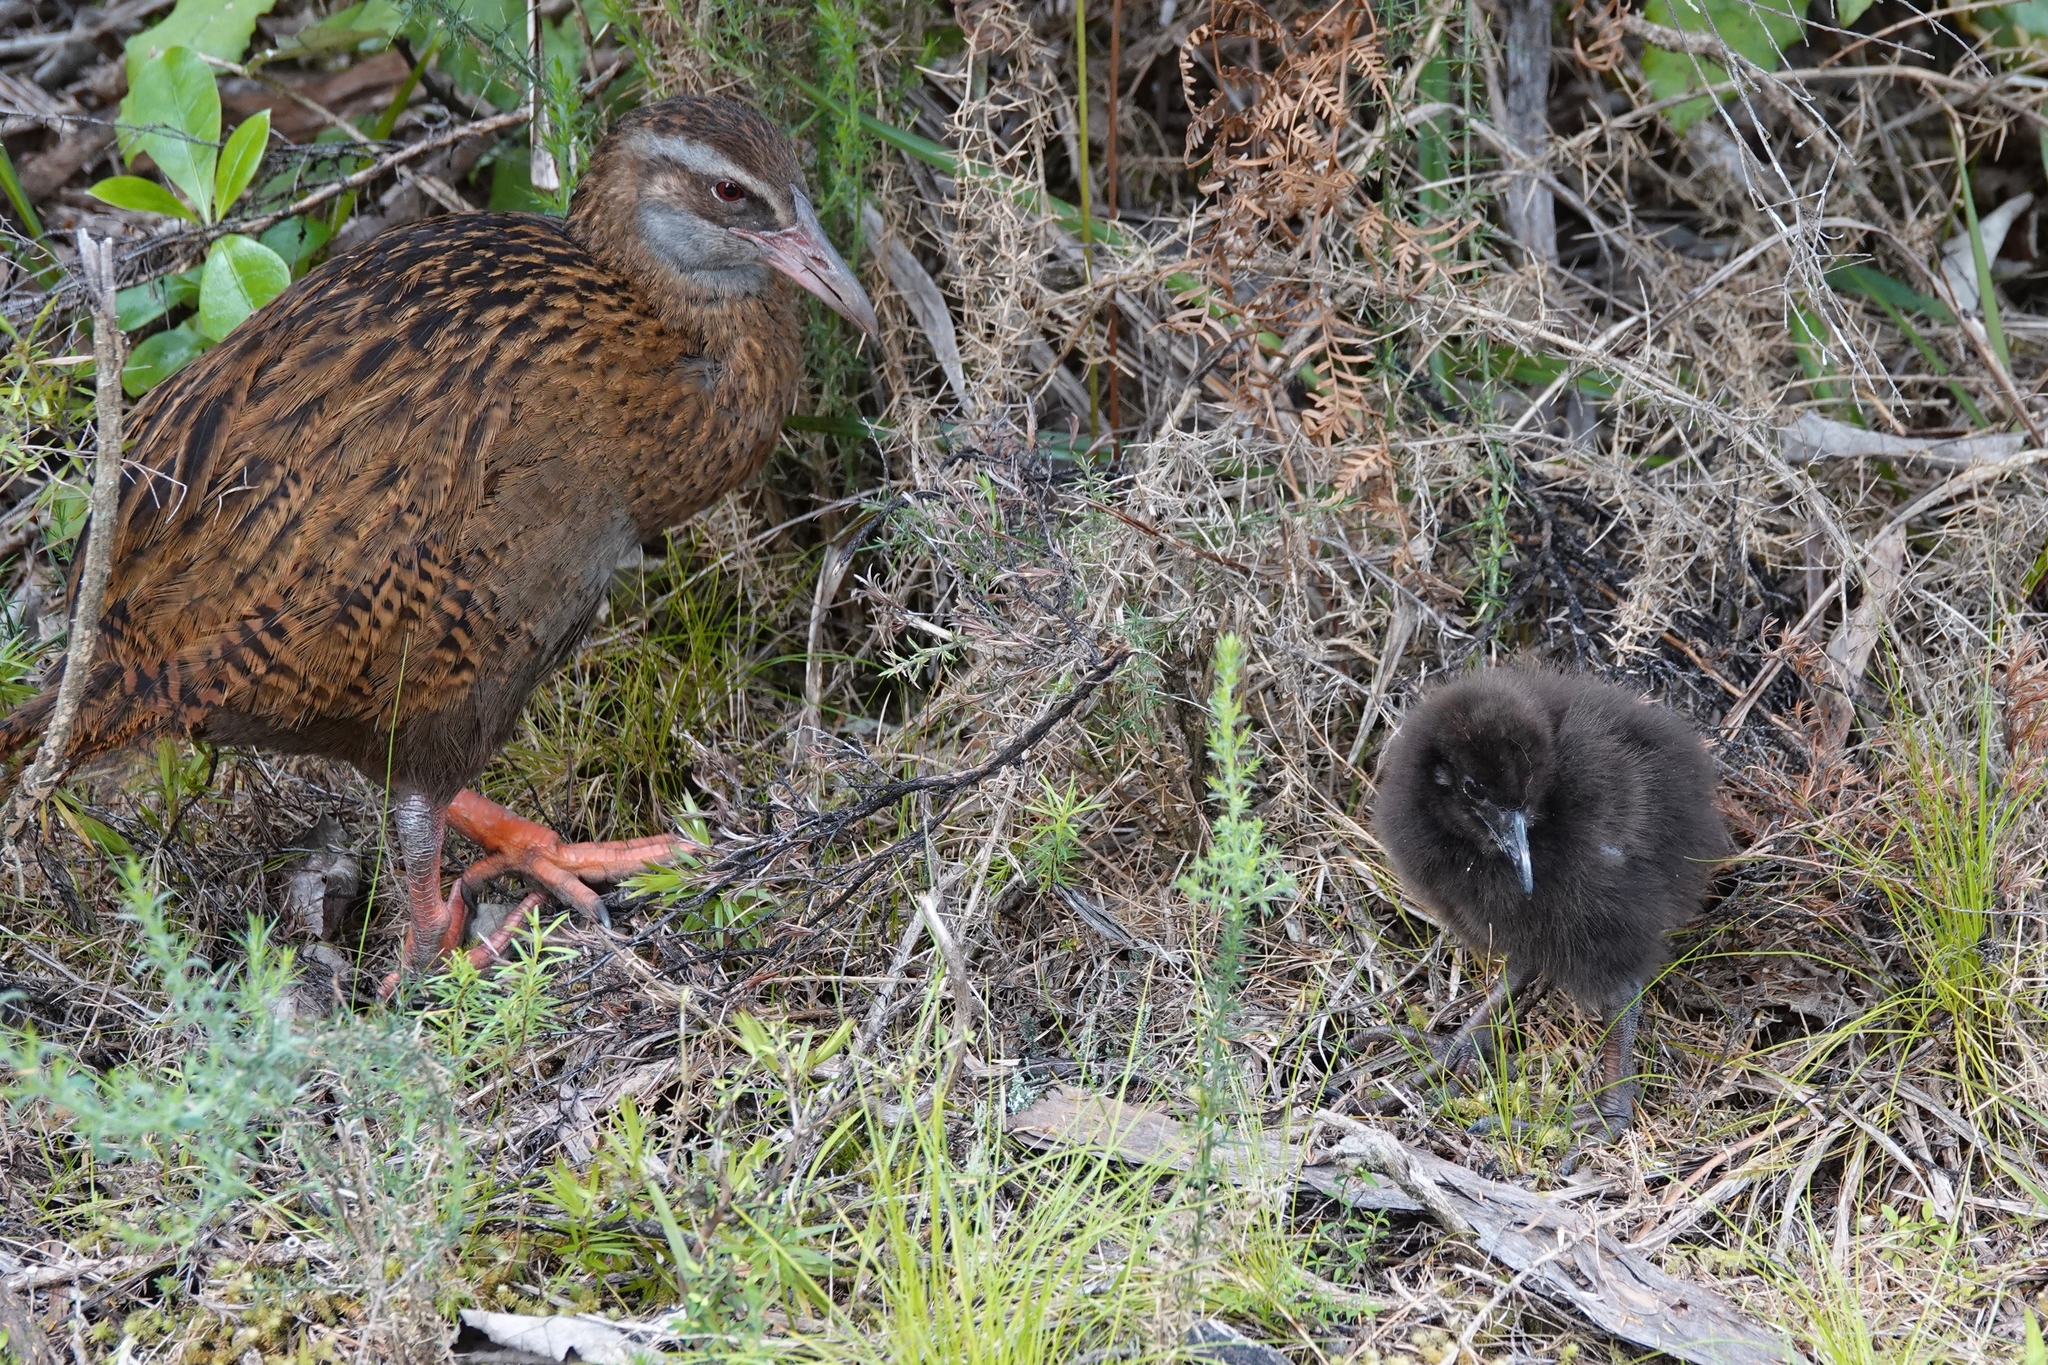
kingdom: Animalia
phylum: Chordata
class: Aves
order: Gruiformes
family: Rallidae
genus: Gallirallus
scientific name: Gallirallus australis
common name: Weka
